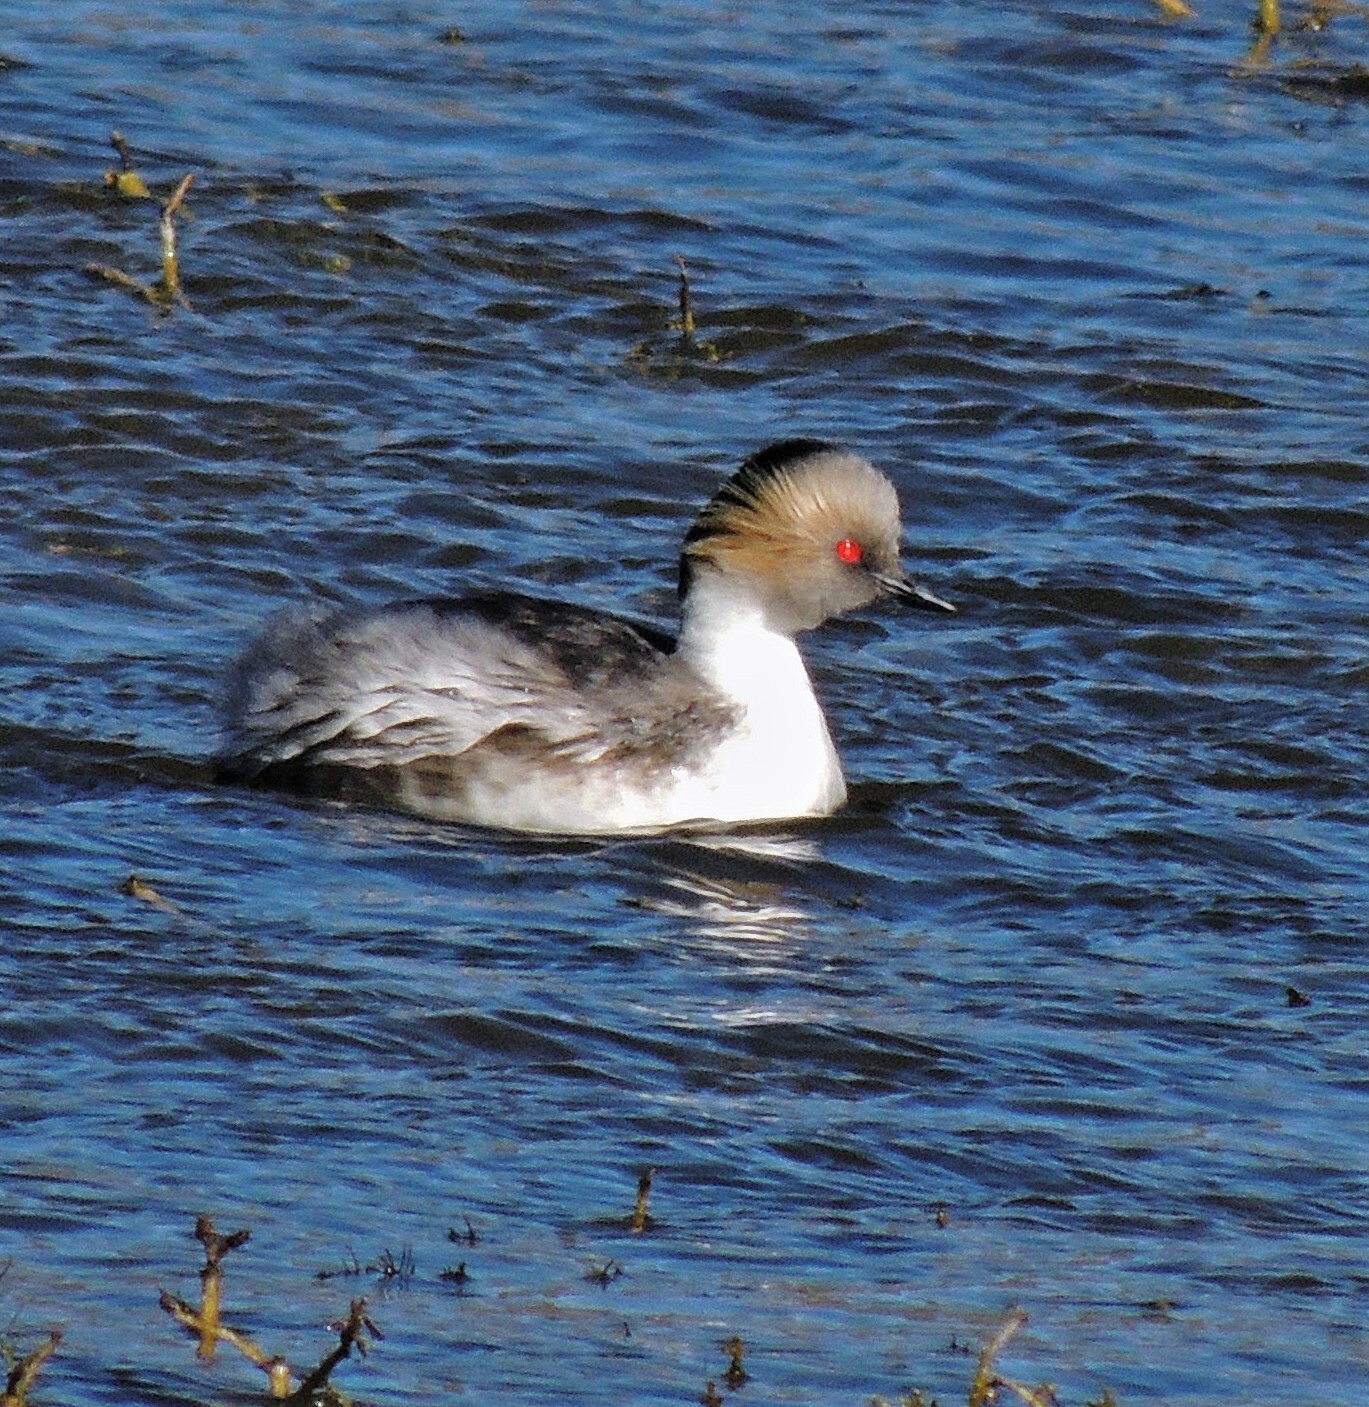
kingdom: Animalia
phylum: Chordata
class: Aves
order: Podicipediformes
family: Podicipedidae
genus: Podiceps
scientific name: Podiceps occipitalis
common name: Silvery grebe
